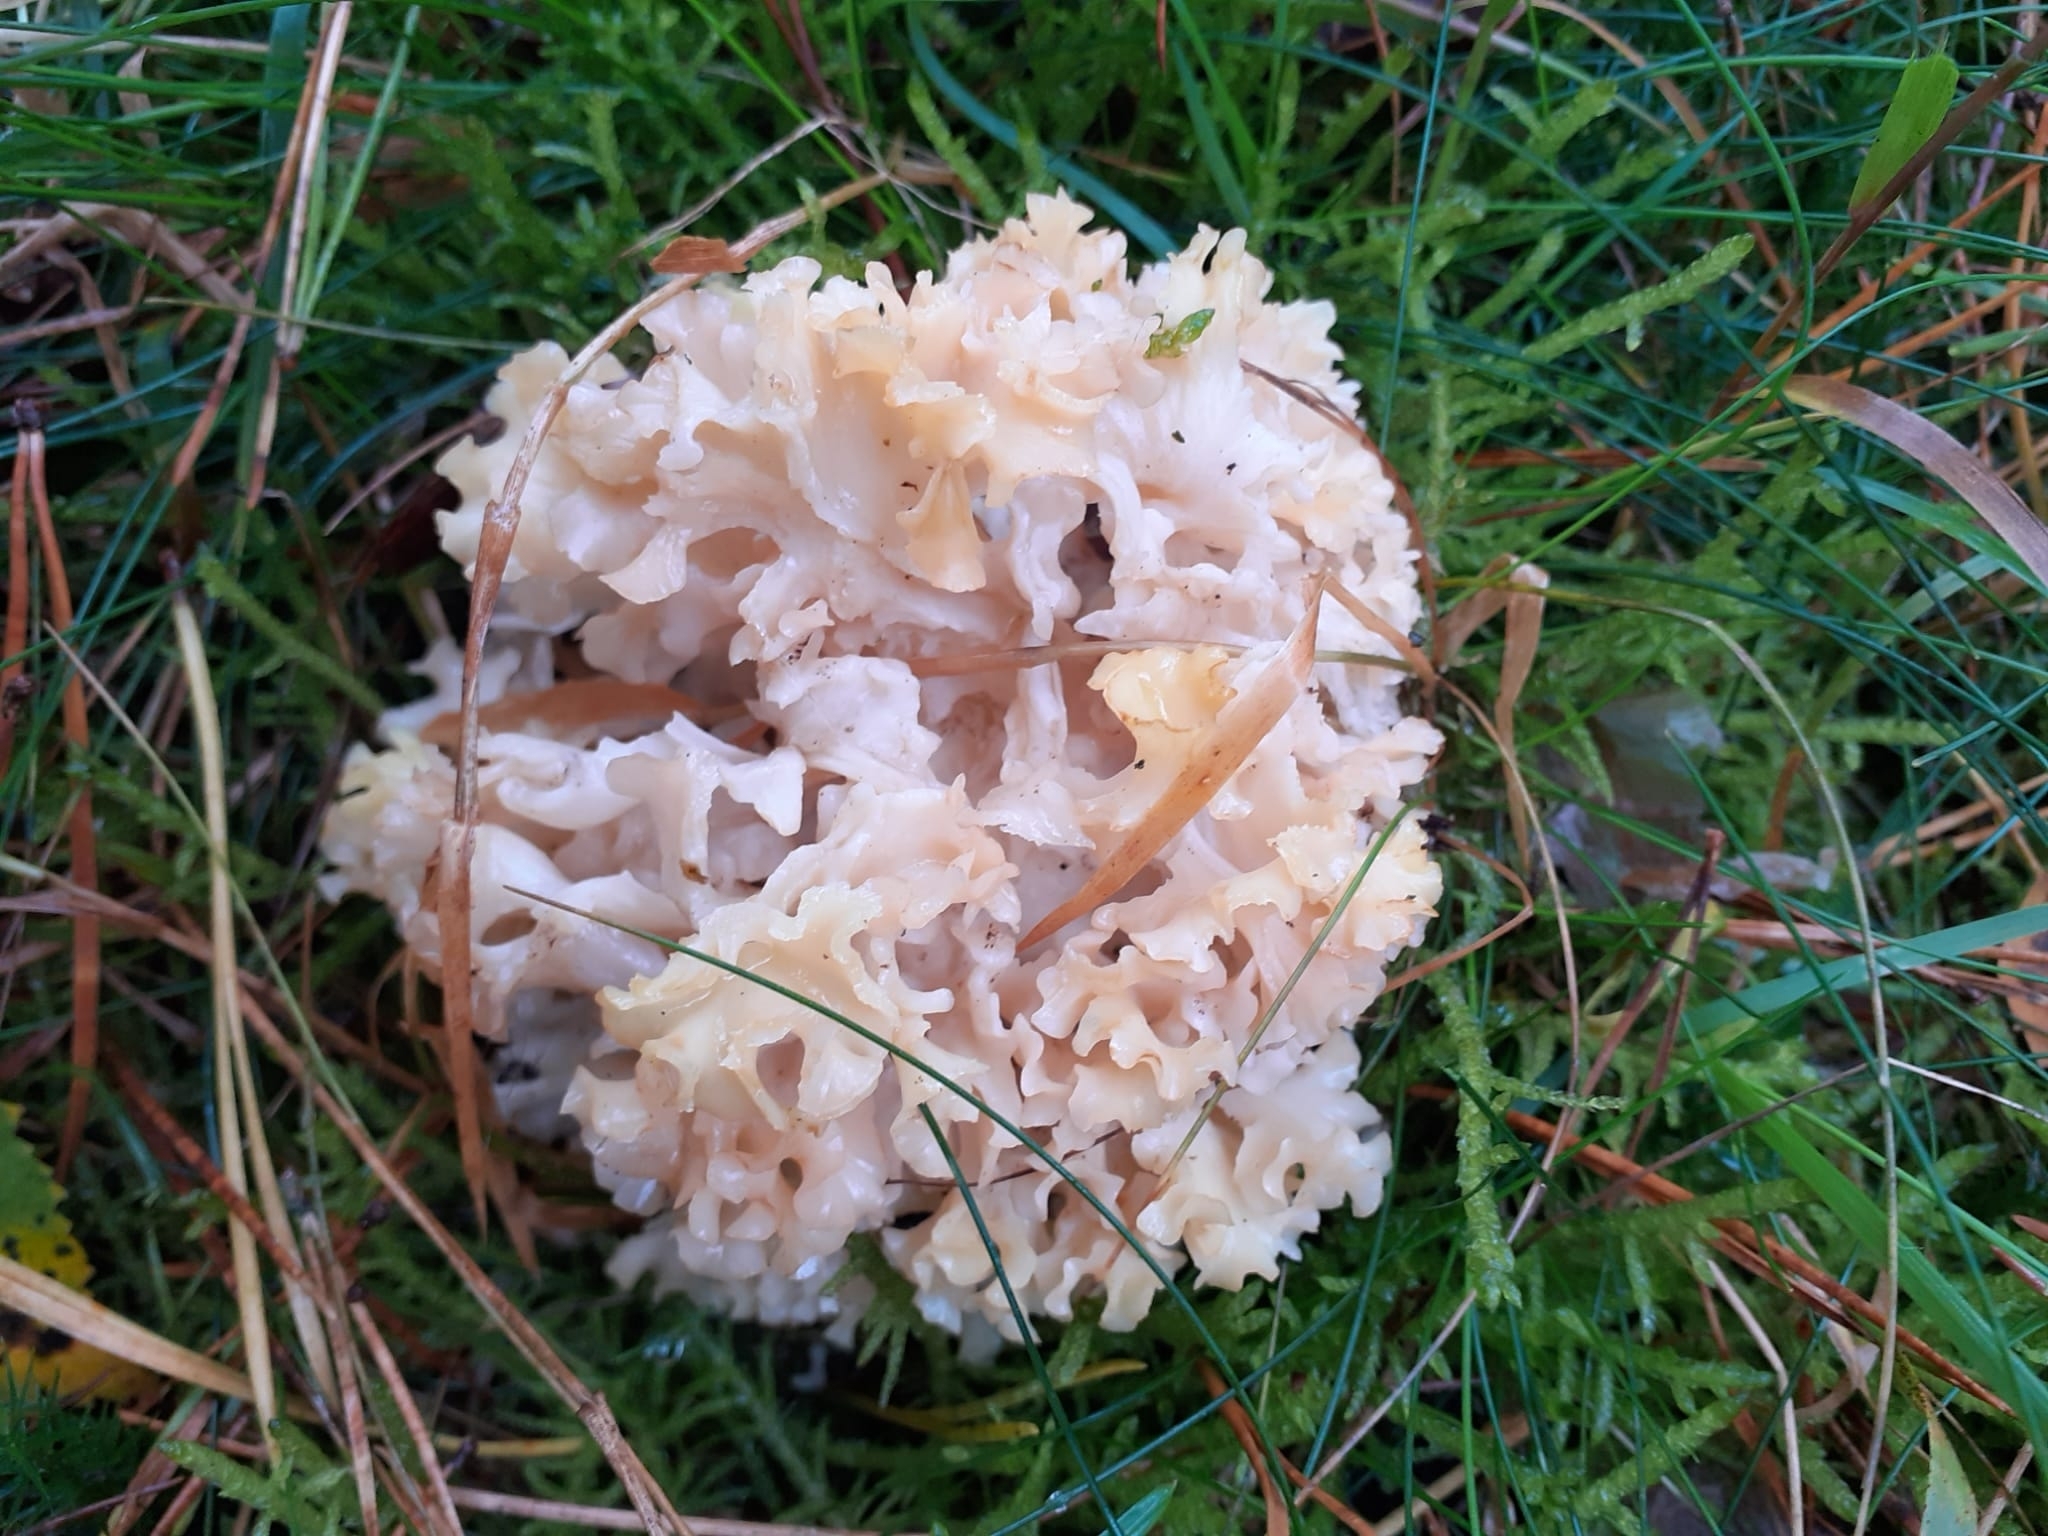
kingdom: Fungi
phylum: Basidiomycota
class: Agaricomycetes
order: Polyporales
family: Sparassidaceae
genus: Sparassis
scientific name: Sparassis crispa
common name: Brain fungus
